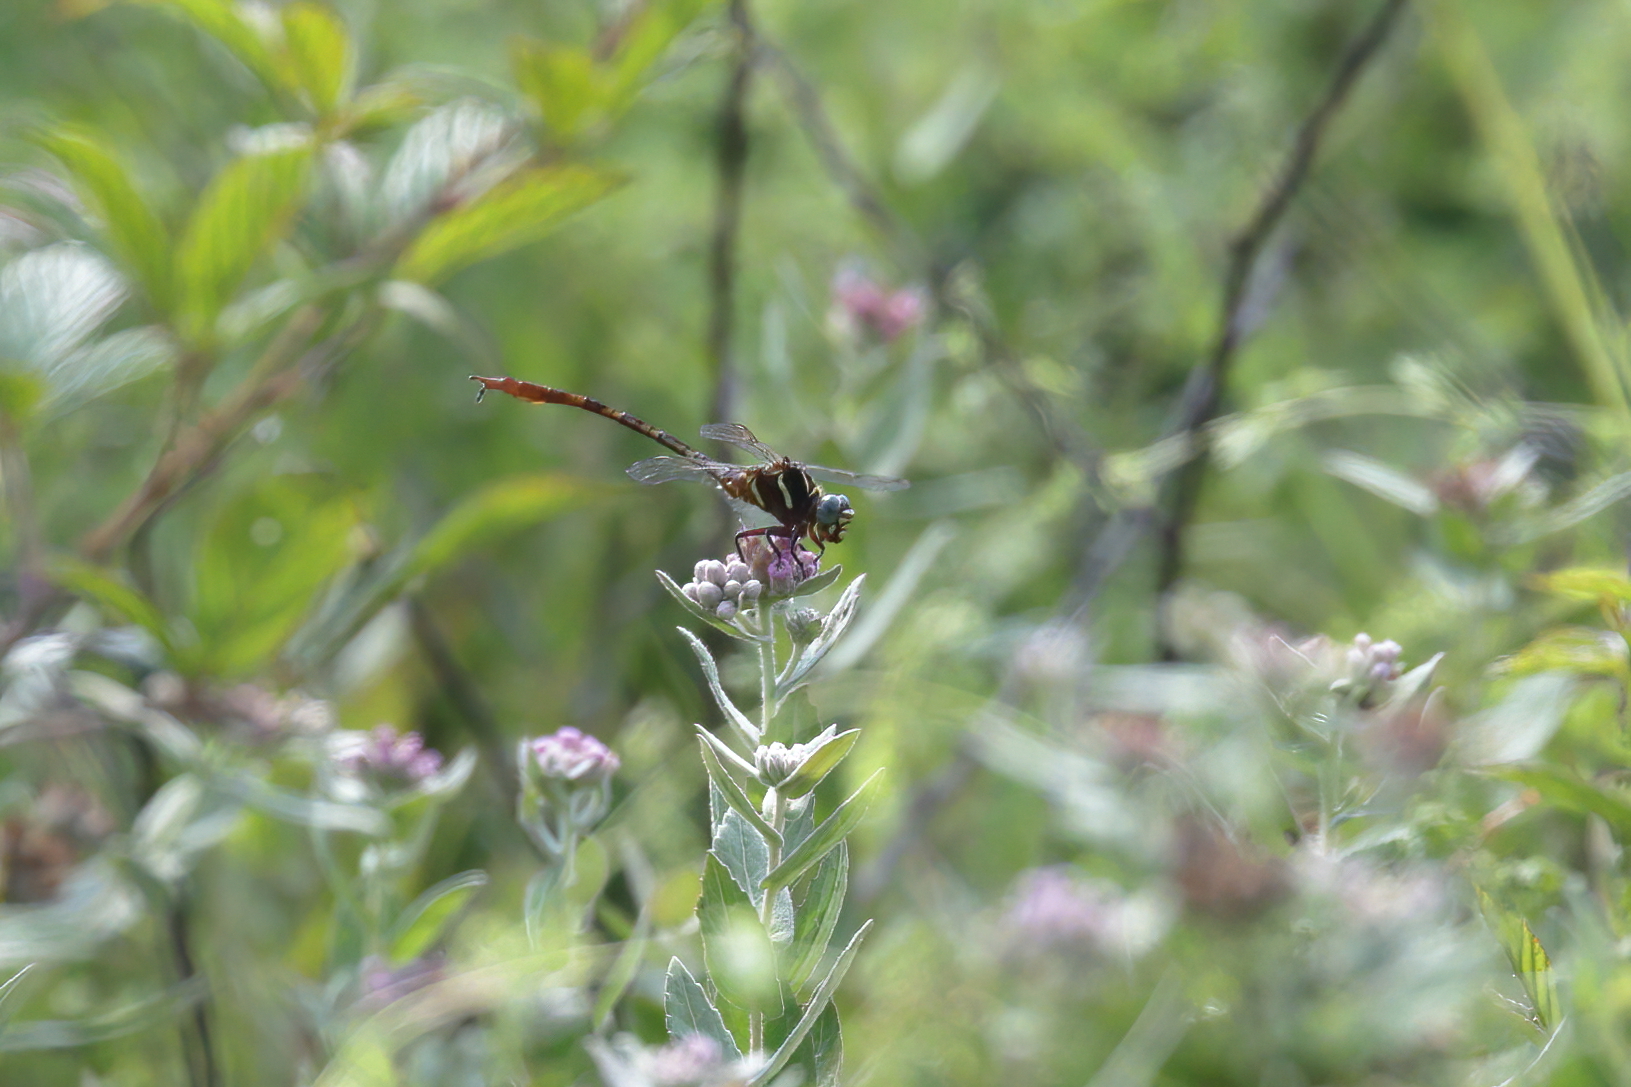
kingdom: Animalia
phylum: Arthropoda
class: Insecta
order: Odonata
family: Gomphidae
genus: Aphylla
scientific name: Aphylla williamsoni
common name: Two-striped forceptail
